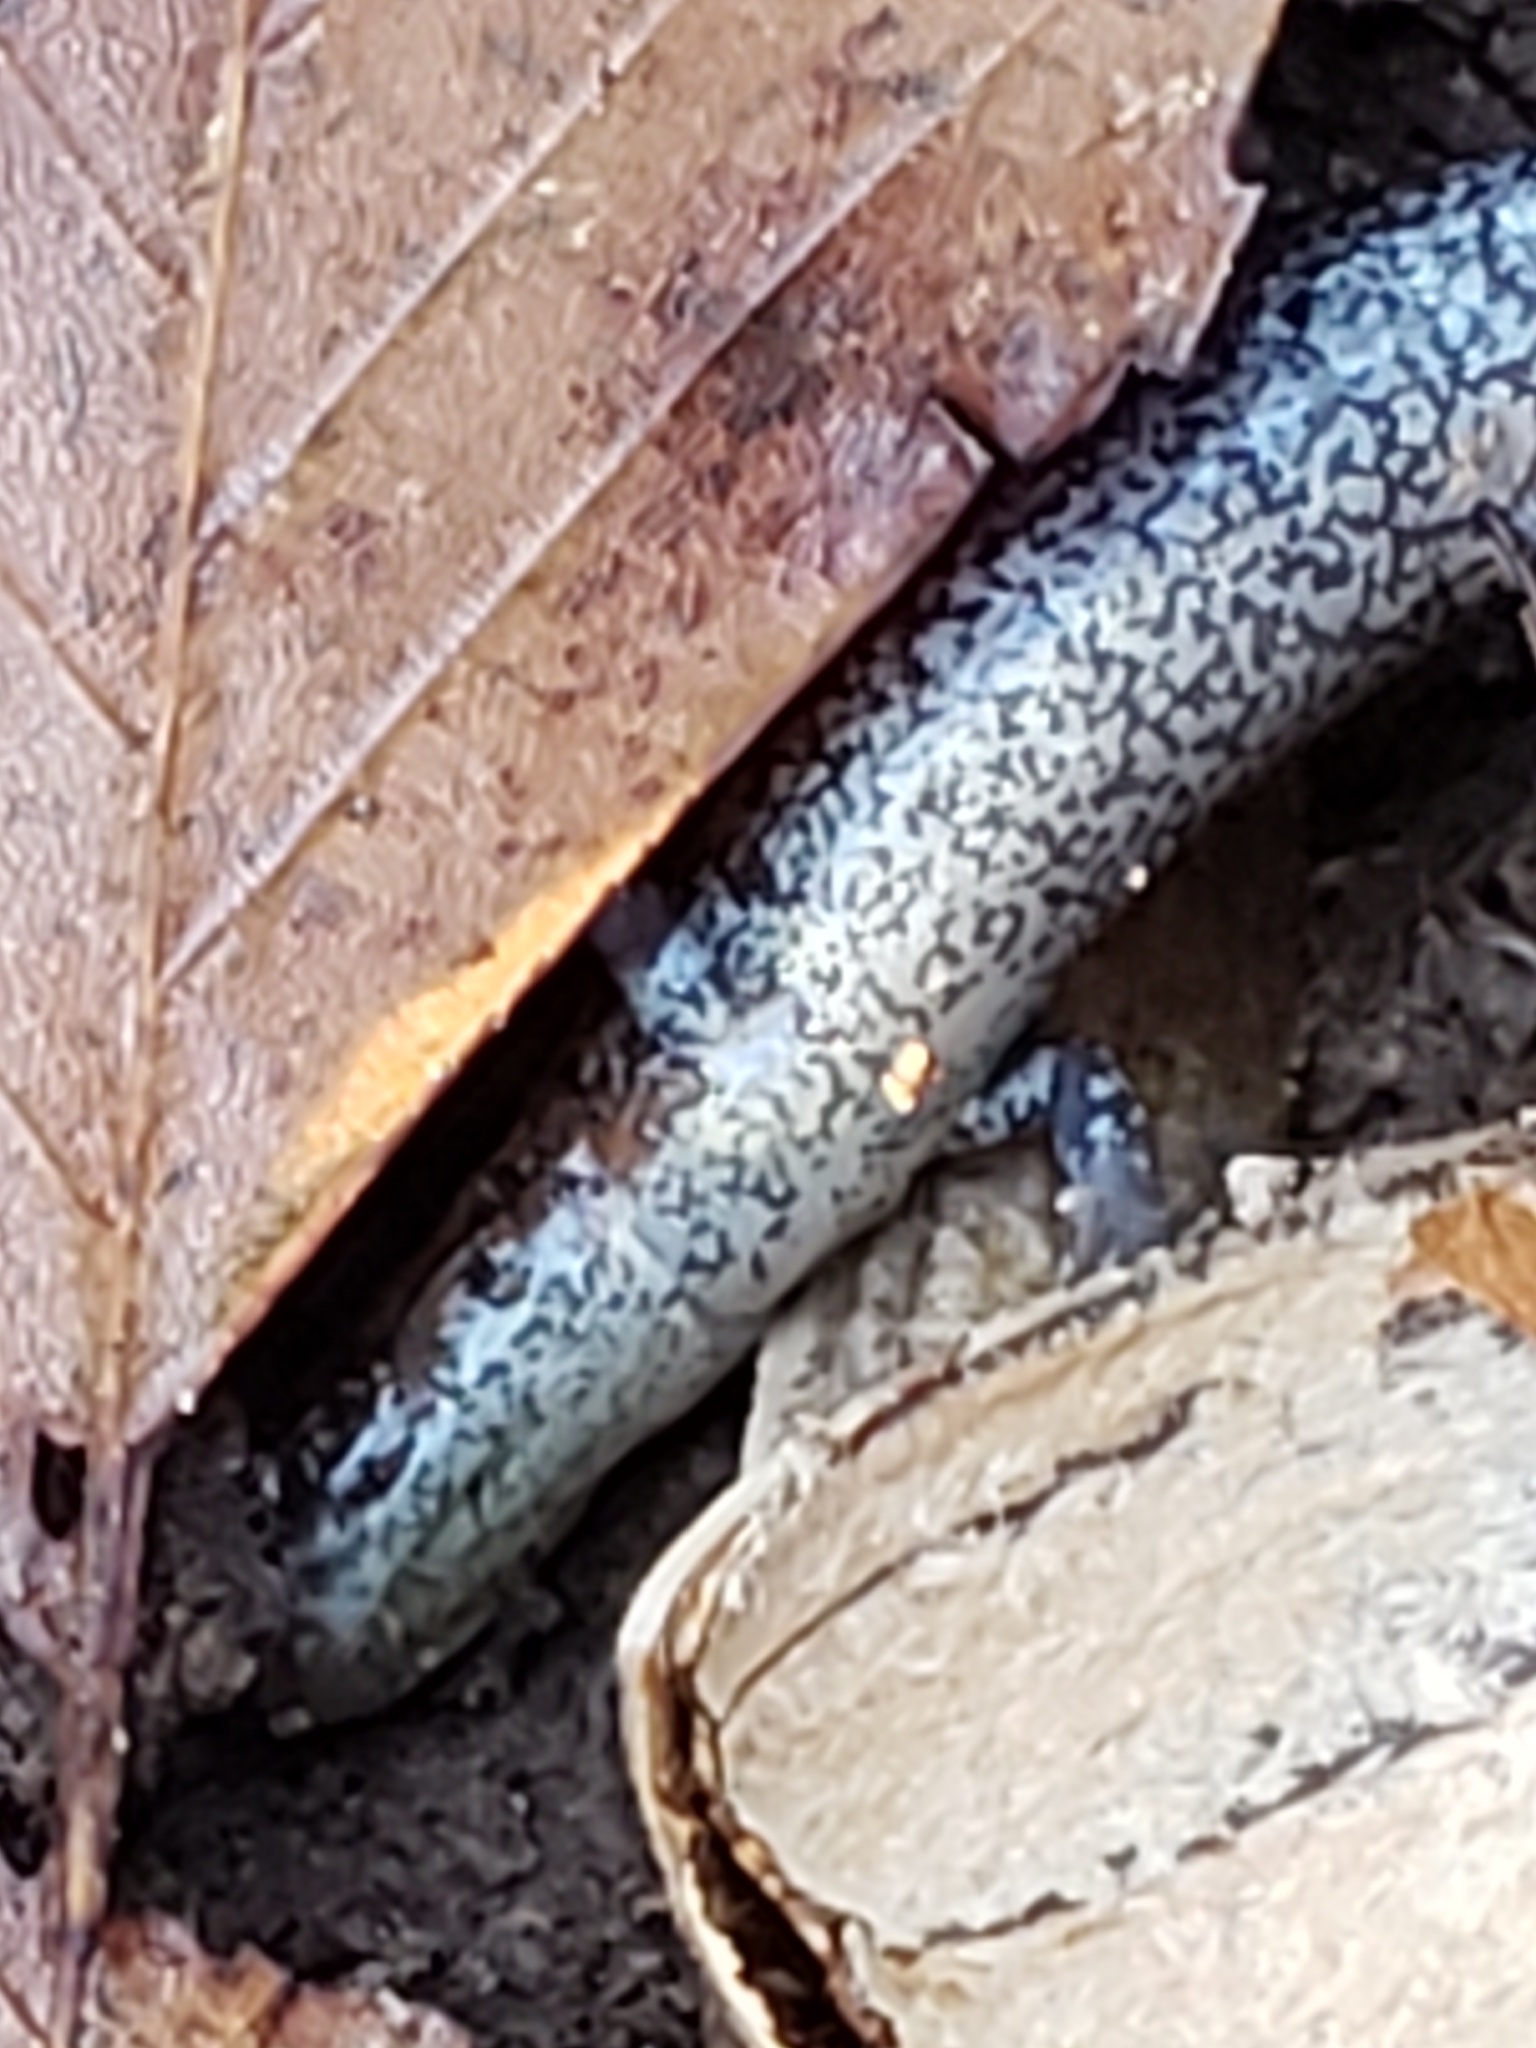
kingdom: Animalia
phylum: Chordata
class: Amphibia
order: Caudata
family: Plethodontidae
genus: Plethodon
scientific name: Plethodon cinereus
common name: Redback salamander
